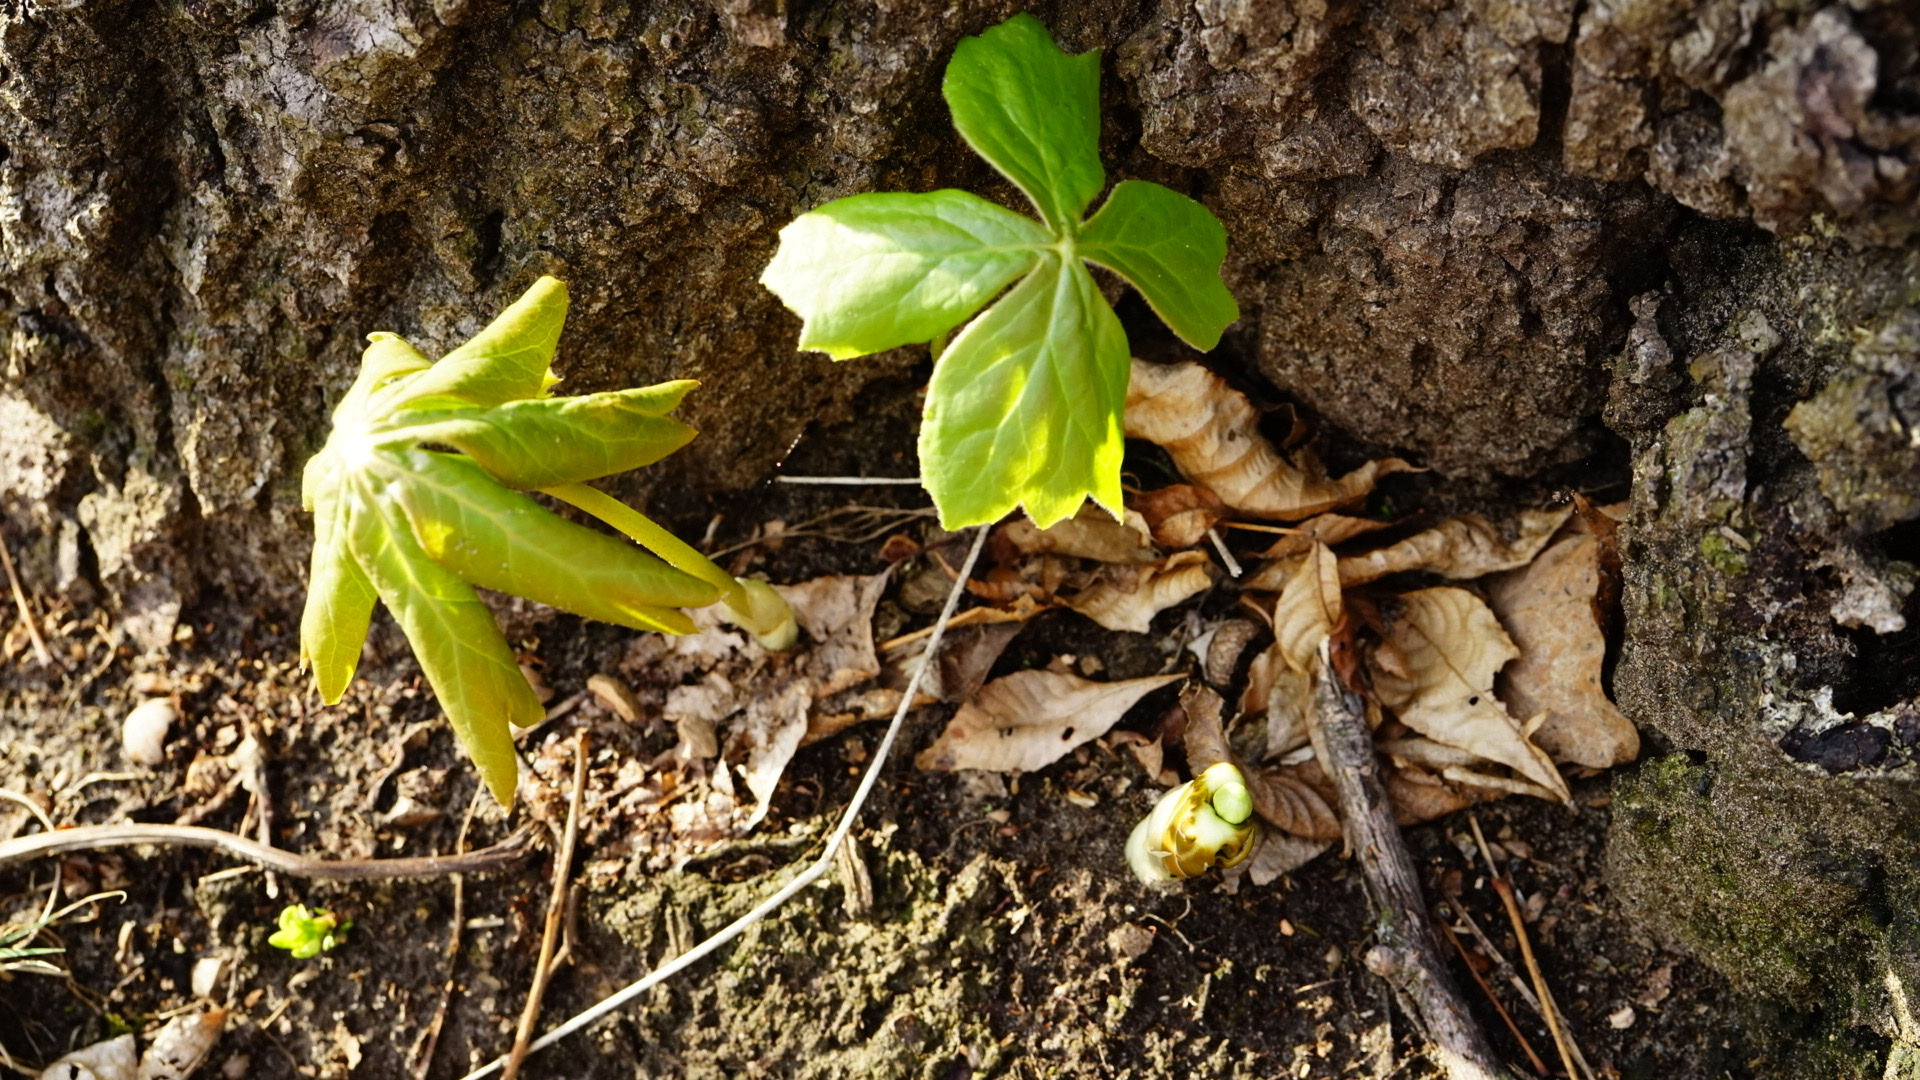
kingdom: Plantae
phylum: Tracheophyta
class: Magnoliopsida
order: Ranunculales
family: Berberidaceae
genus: Podophyllum
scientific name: Podophyllum peltatum
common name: Wild mandrake
